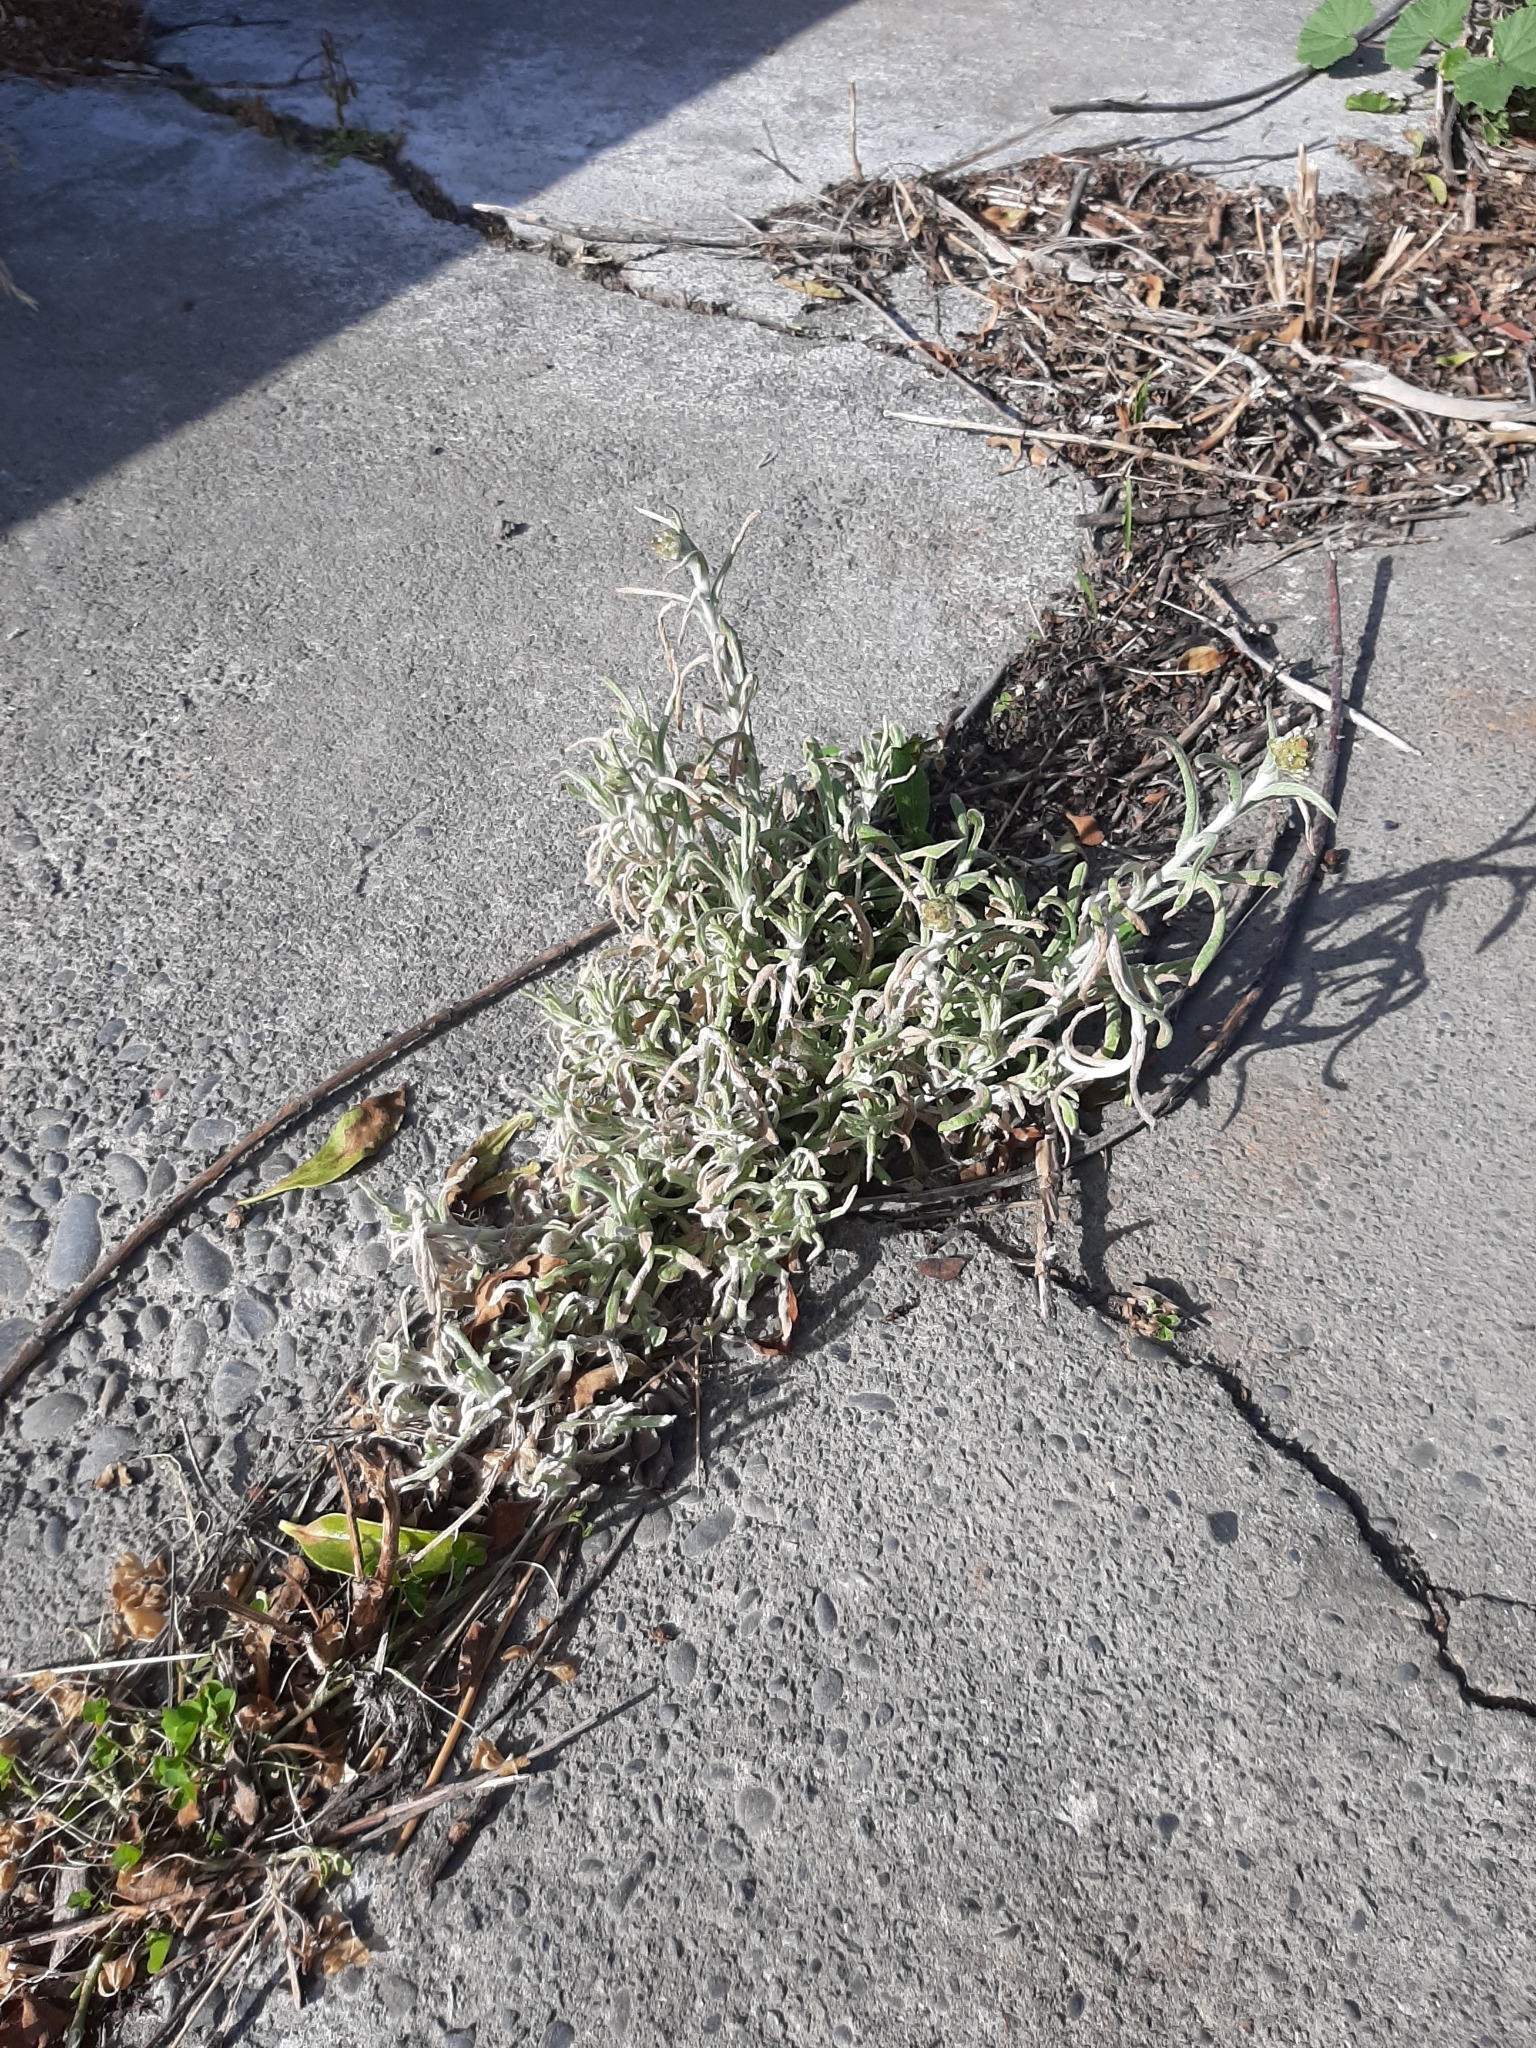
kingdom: Plantae
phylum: Tracheophyta
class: Magnoliopsida
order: Asterales
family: Asteraceae
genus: Helichrysum
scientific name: Helichrysum luteoalbum
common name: Daisy
